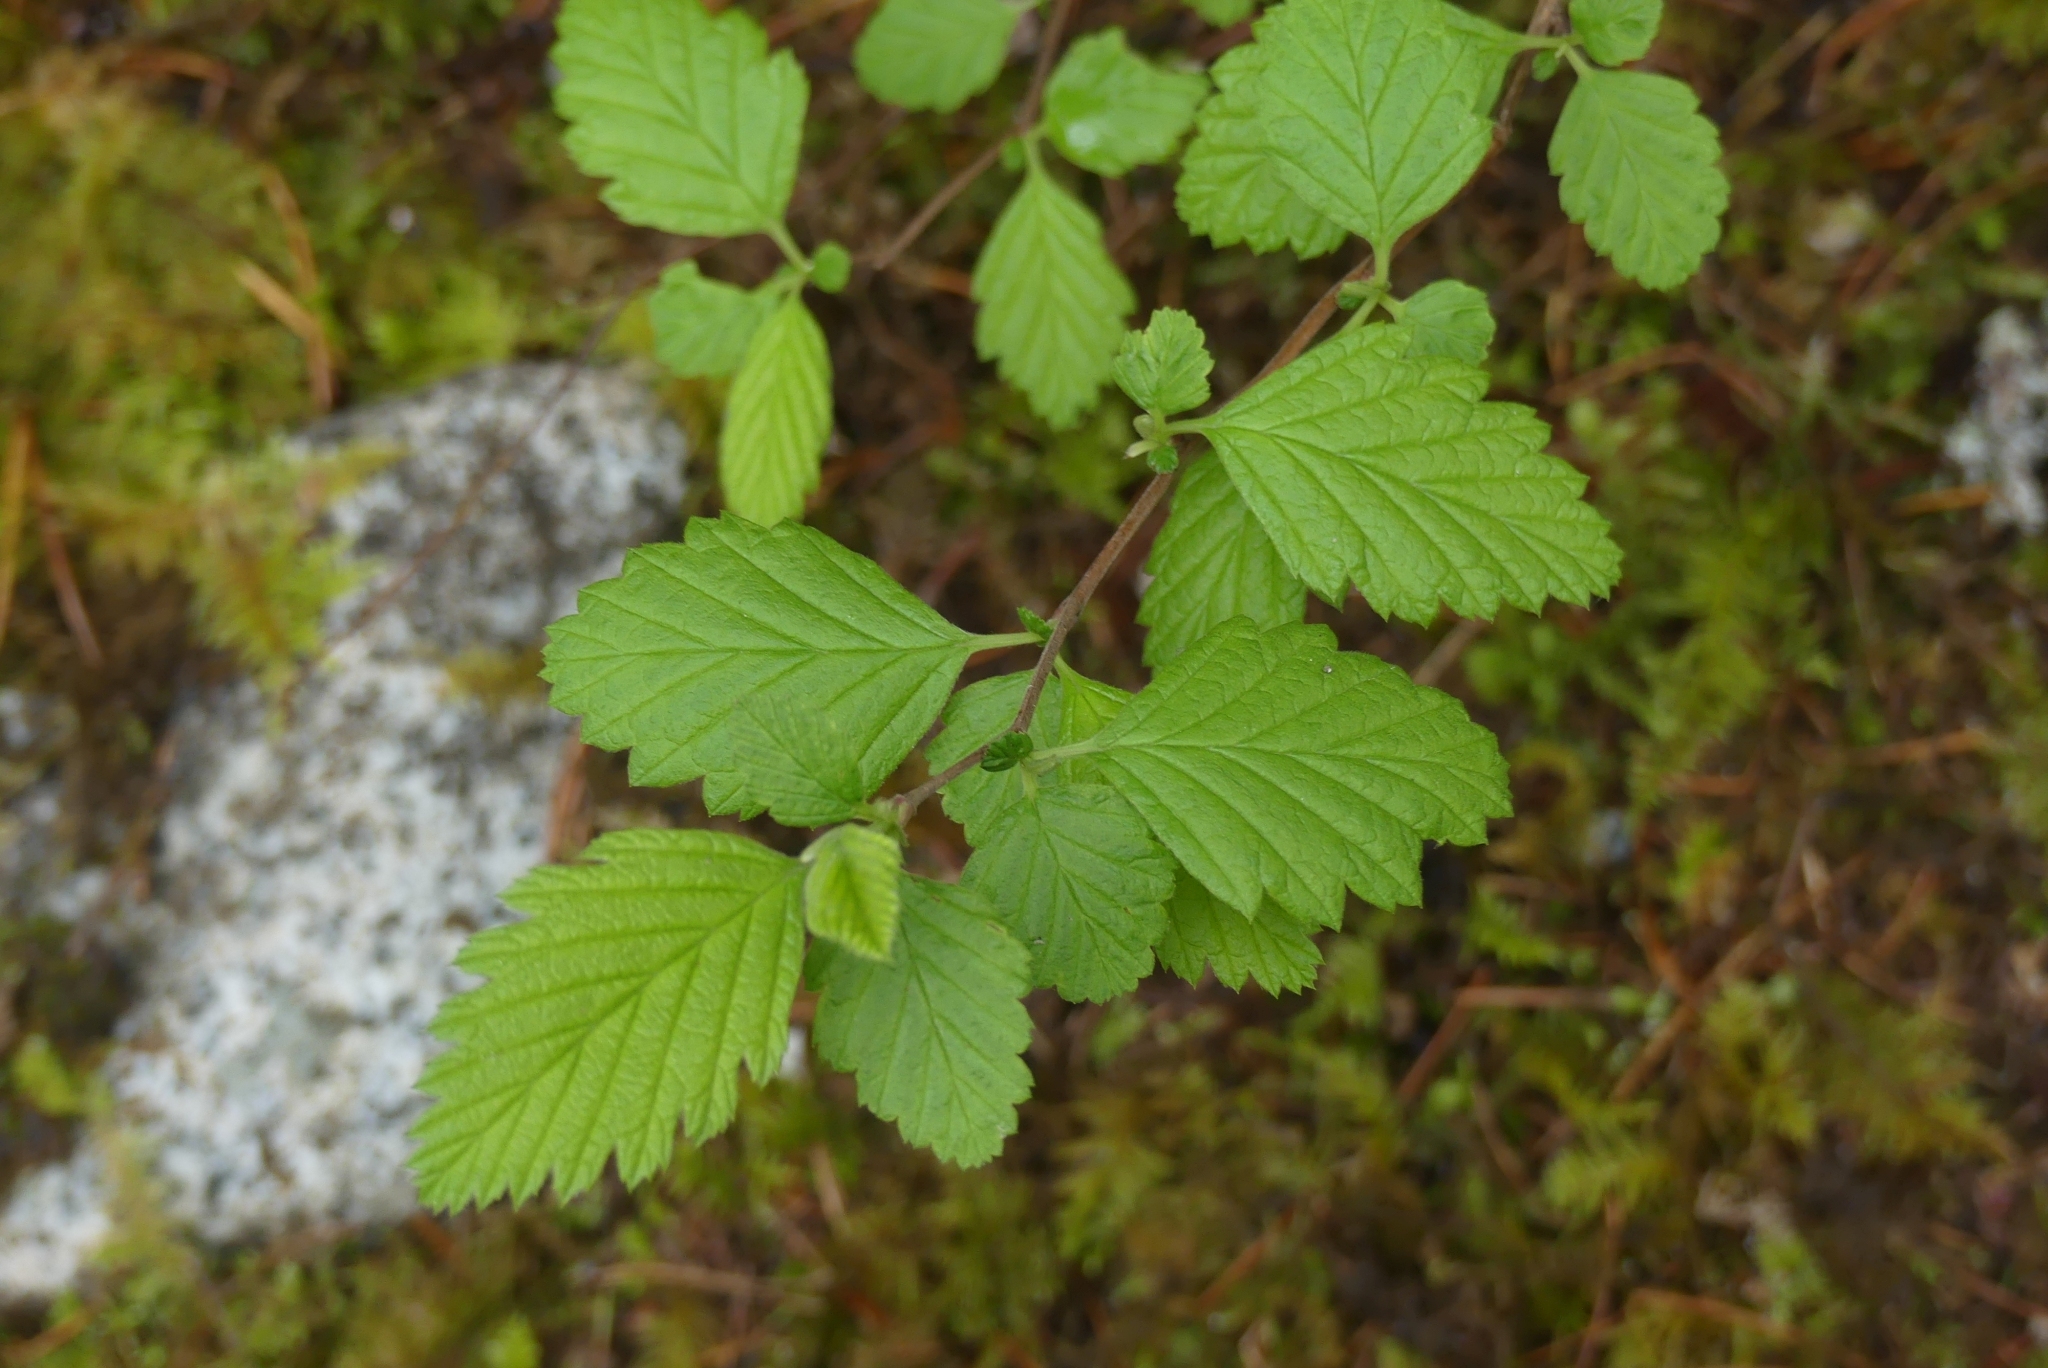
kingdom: Plantae
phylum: Tracheophyta
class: Magnoliopsida
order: Rosales
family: Rosaceae
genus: Holodiscus
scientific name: Holodiscus discolor
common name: Oceanspray
